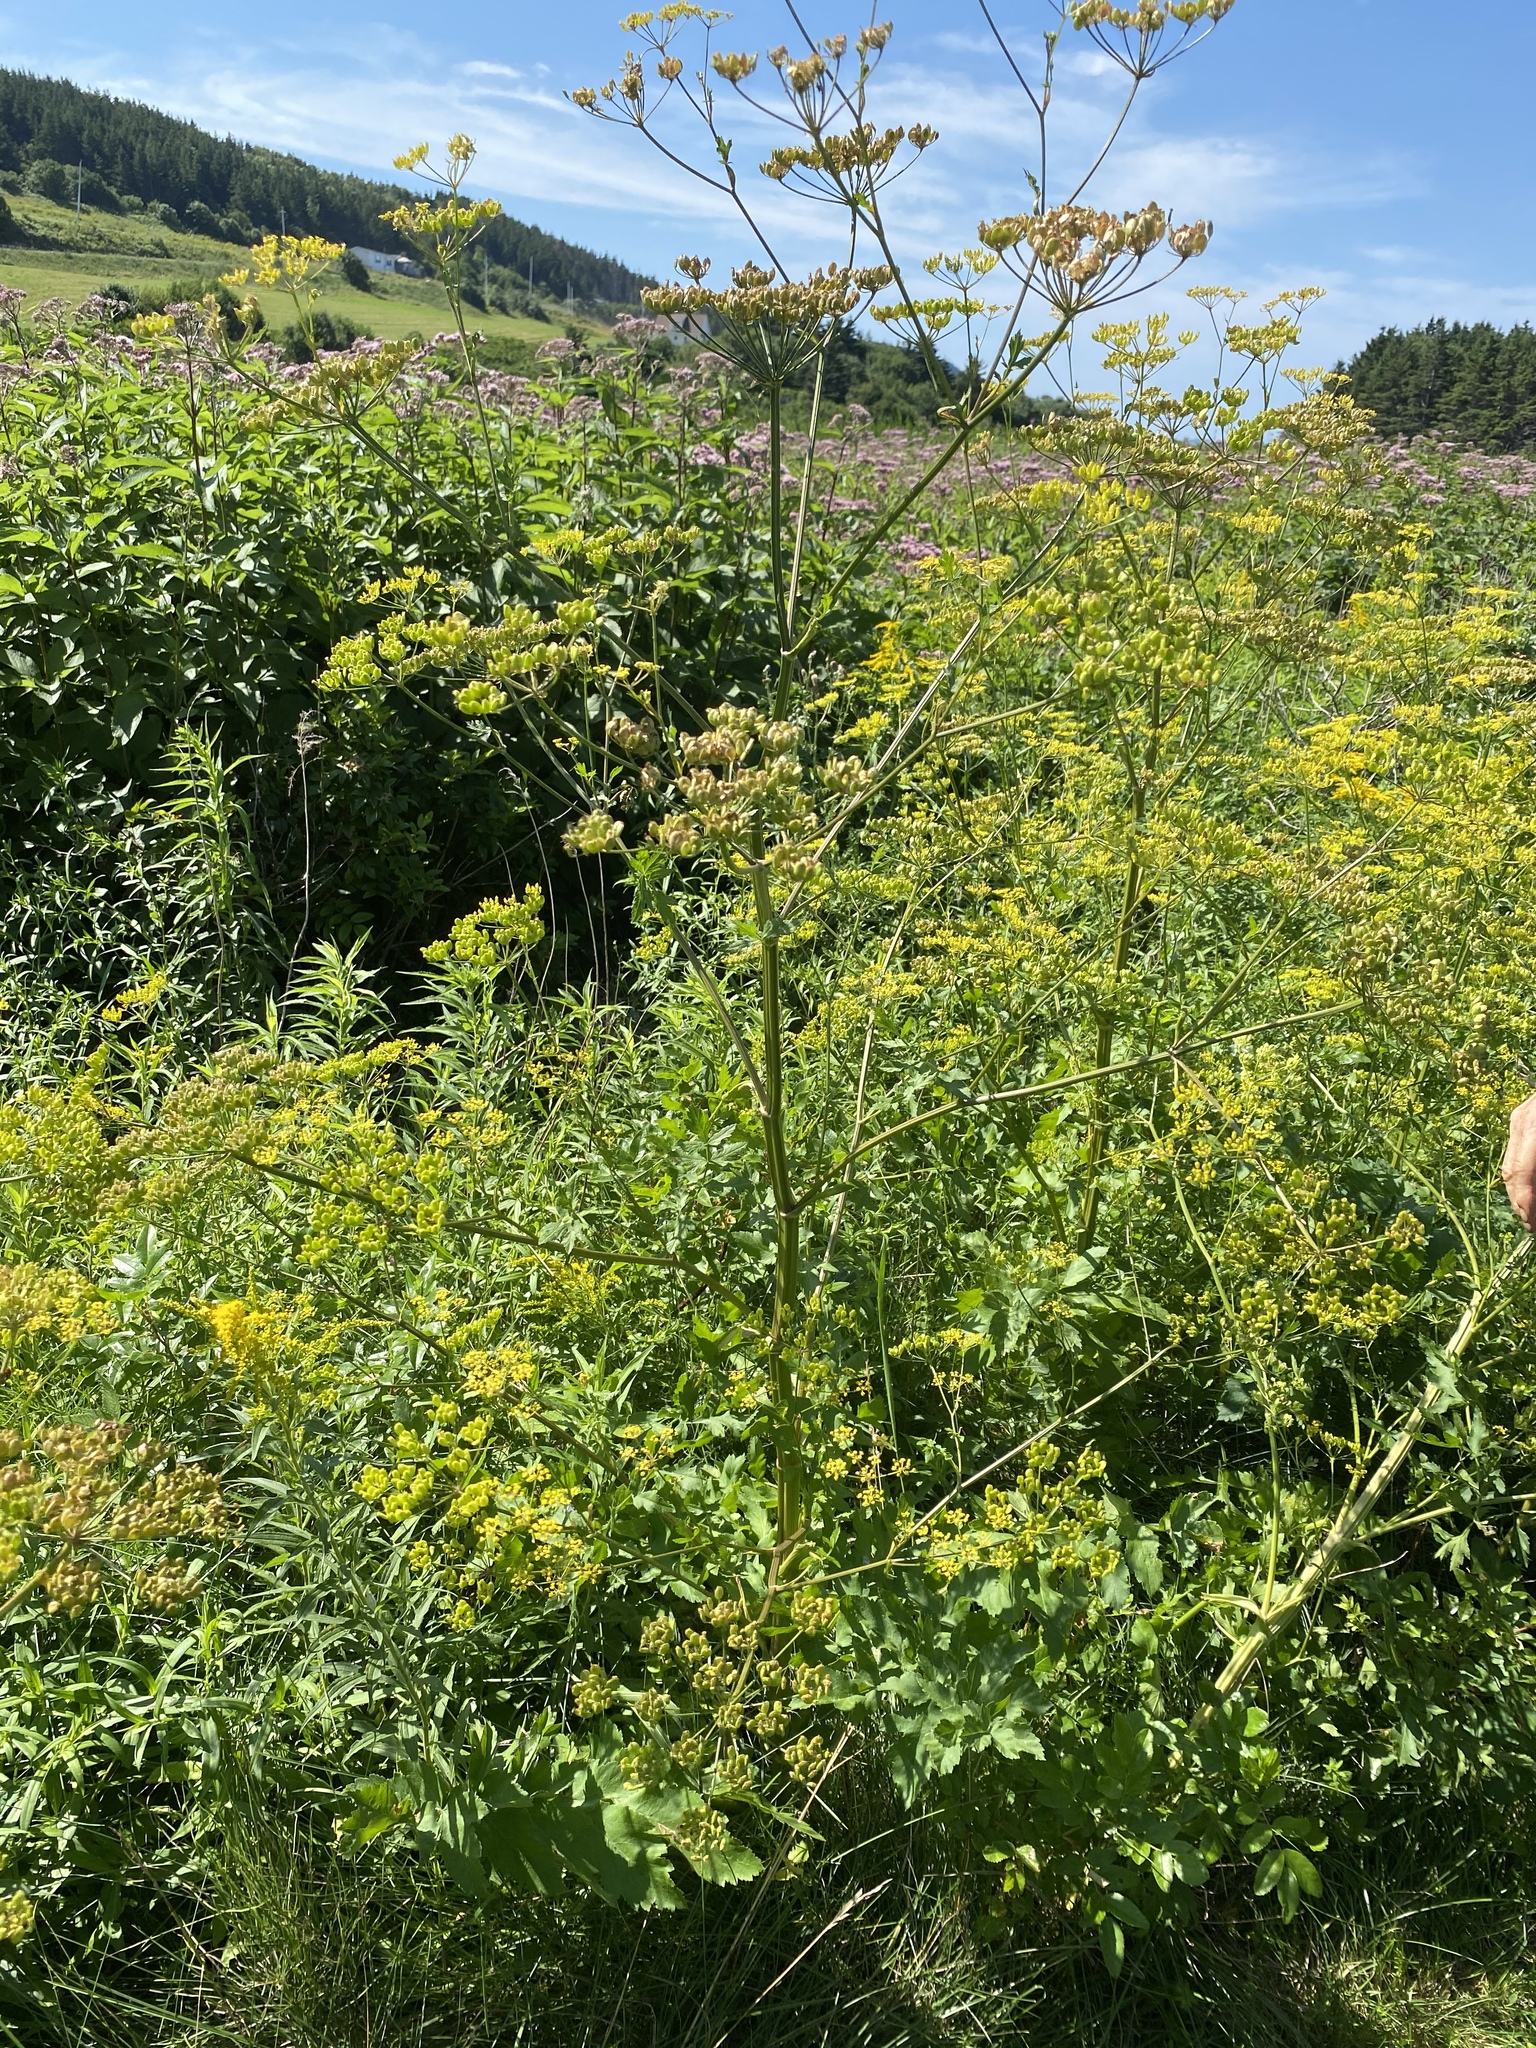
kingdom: Plantae
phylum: Tracheophyta
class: Magnoliopsida
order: Apiales
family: Apiaceae
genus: Pastinaca
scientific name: Pastinaca sativa
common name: Wild parsnip
